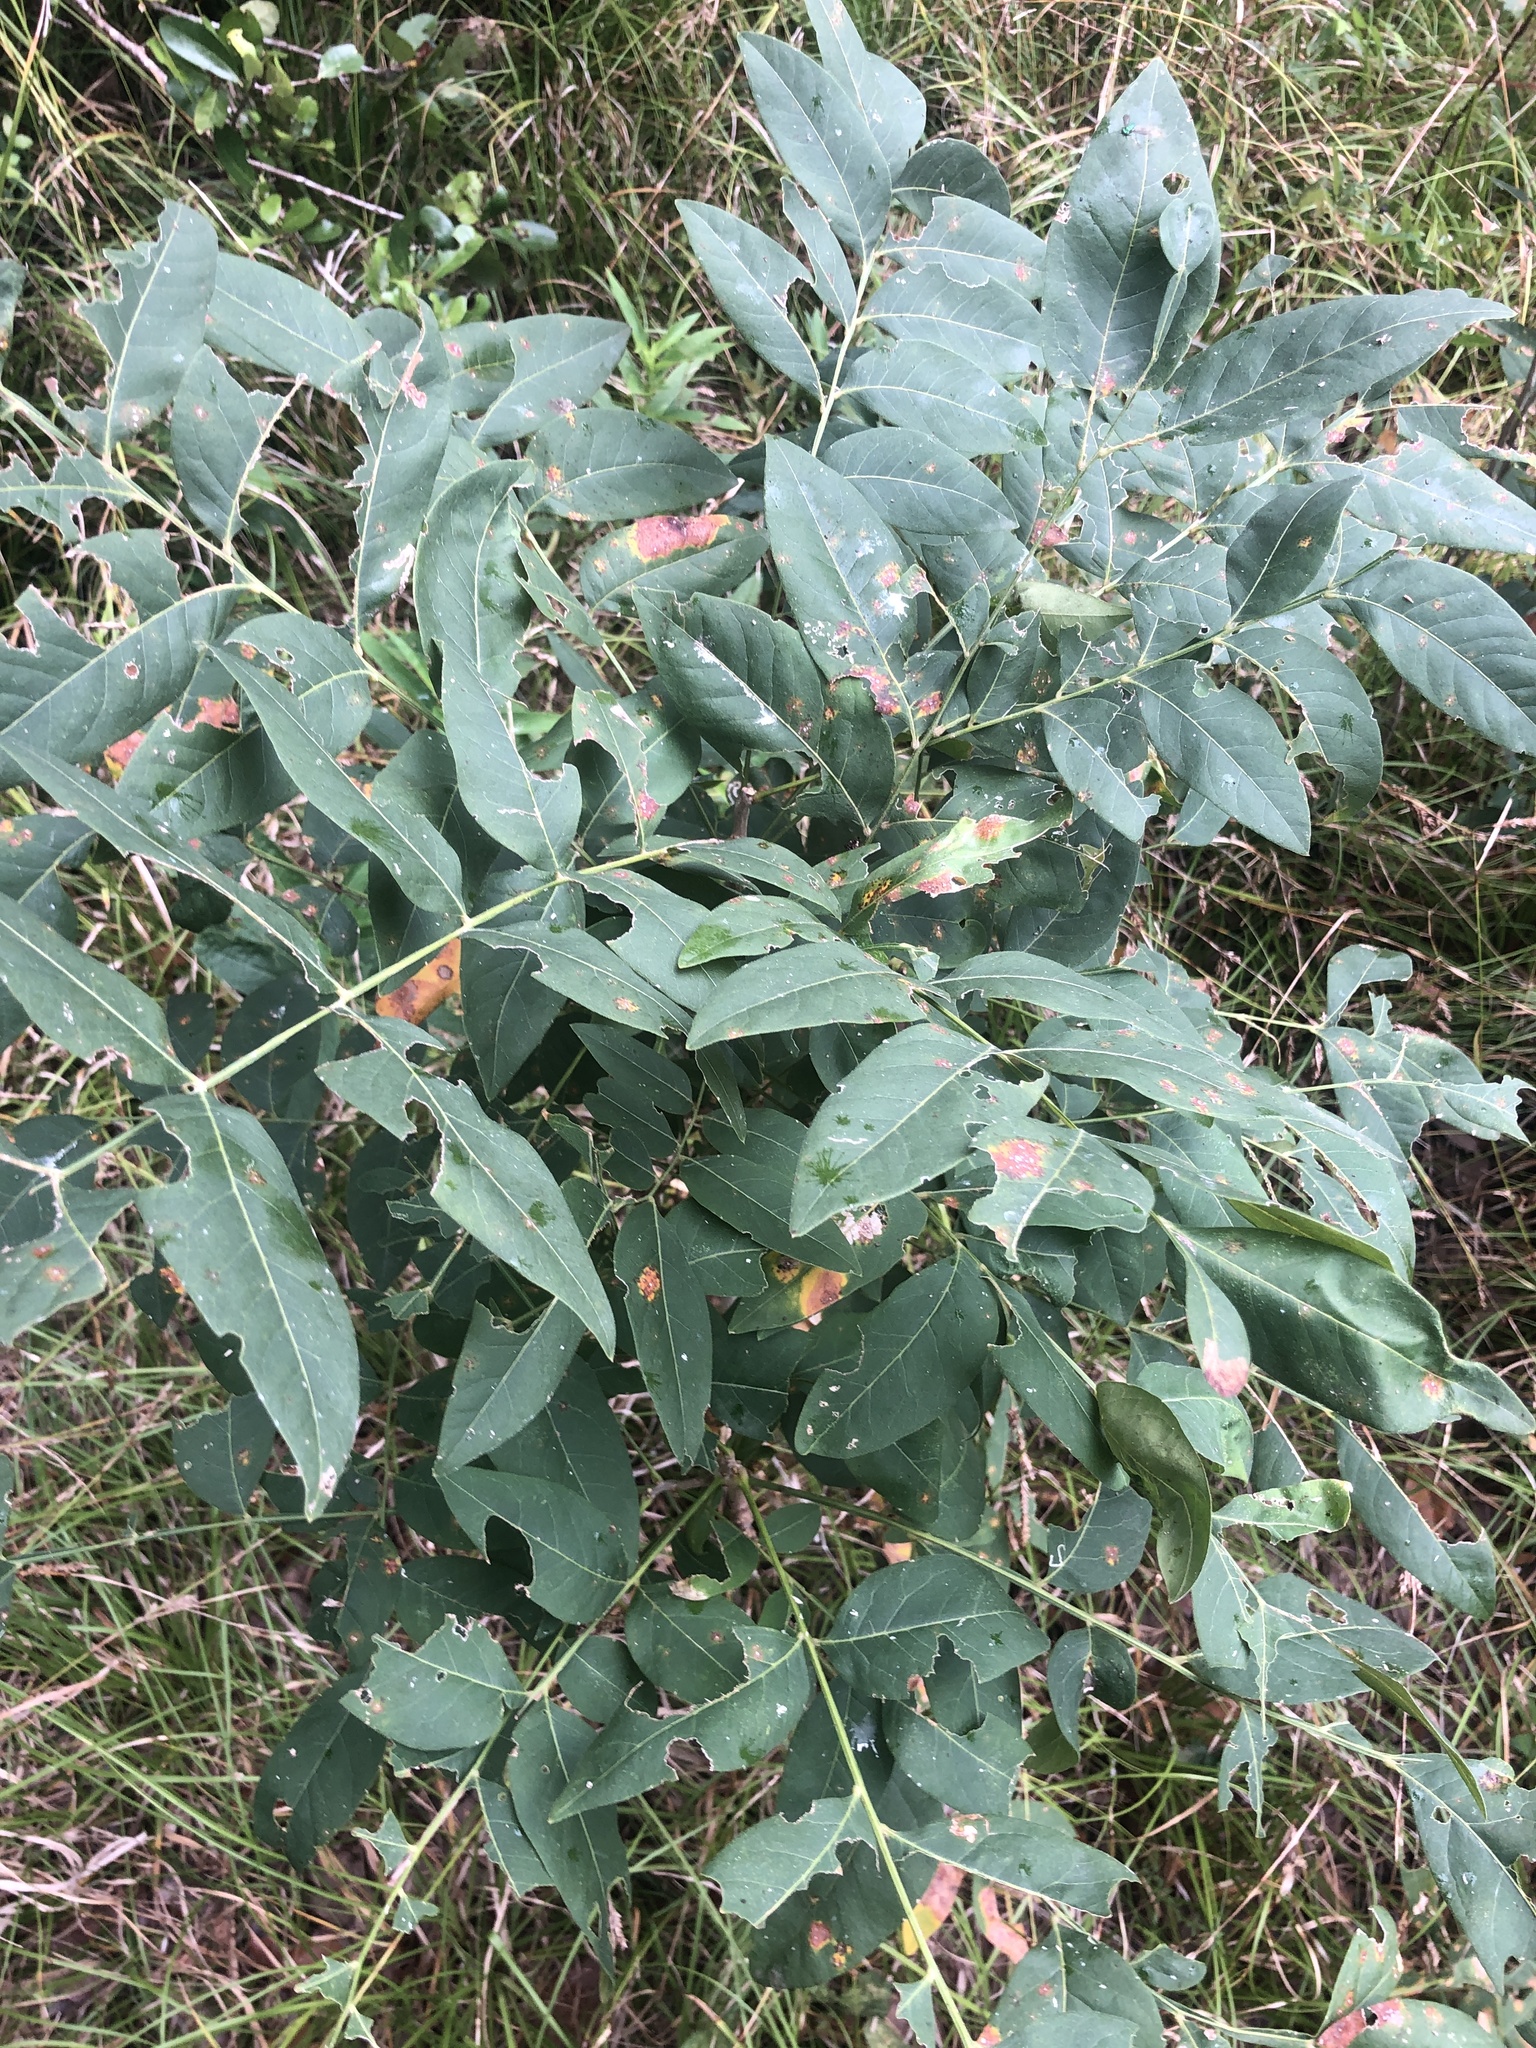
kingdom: Plantae
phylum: Tracheophyta
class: Magnoliopsida
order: Sapindales
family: Sapindaceae
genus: Sapindus
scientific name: Sapindus drummondii
